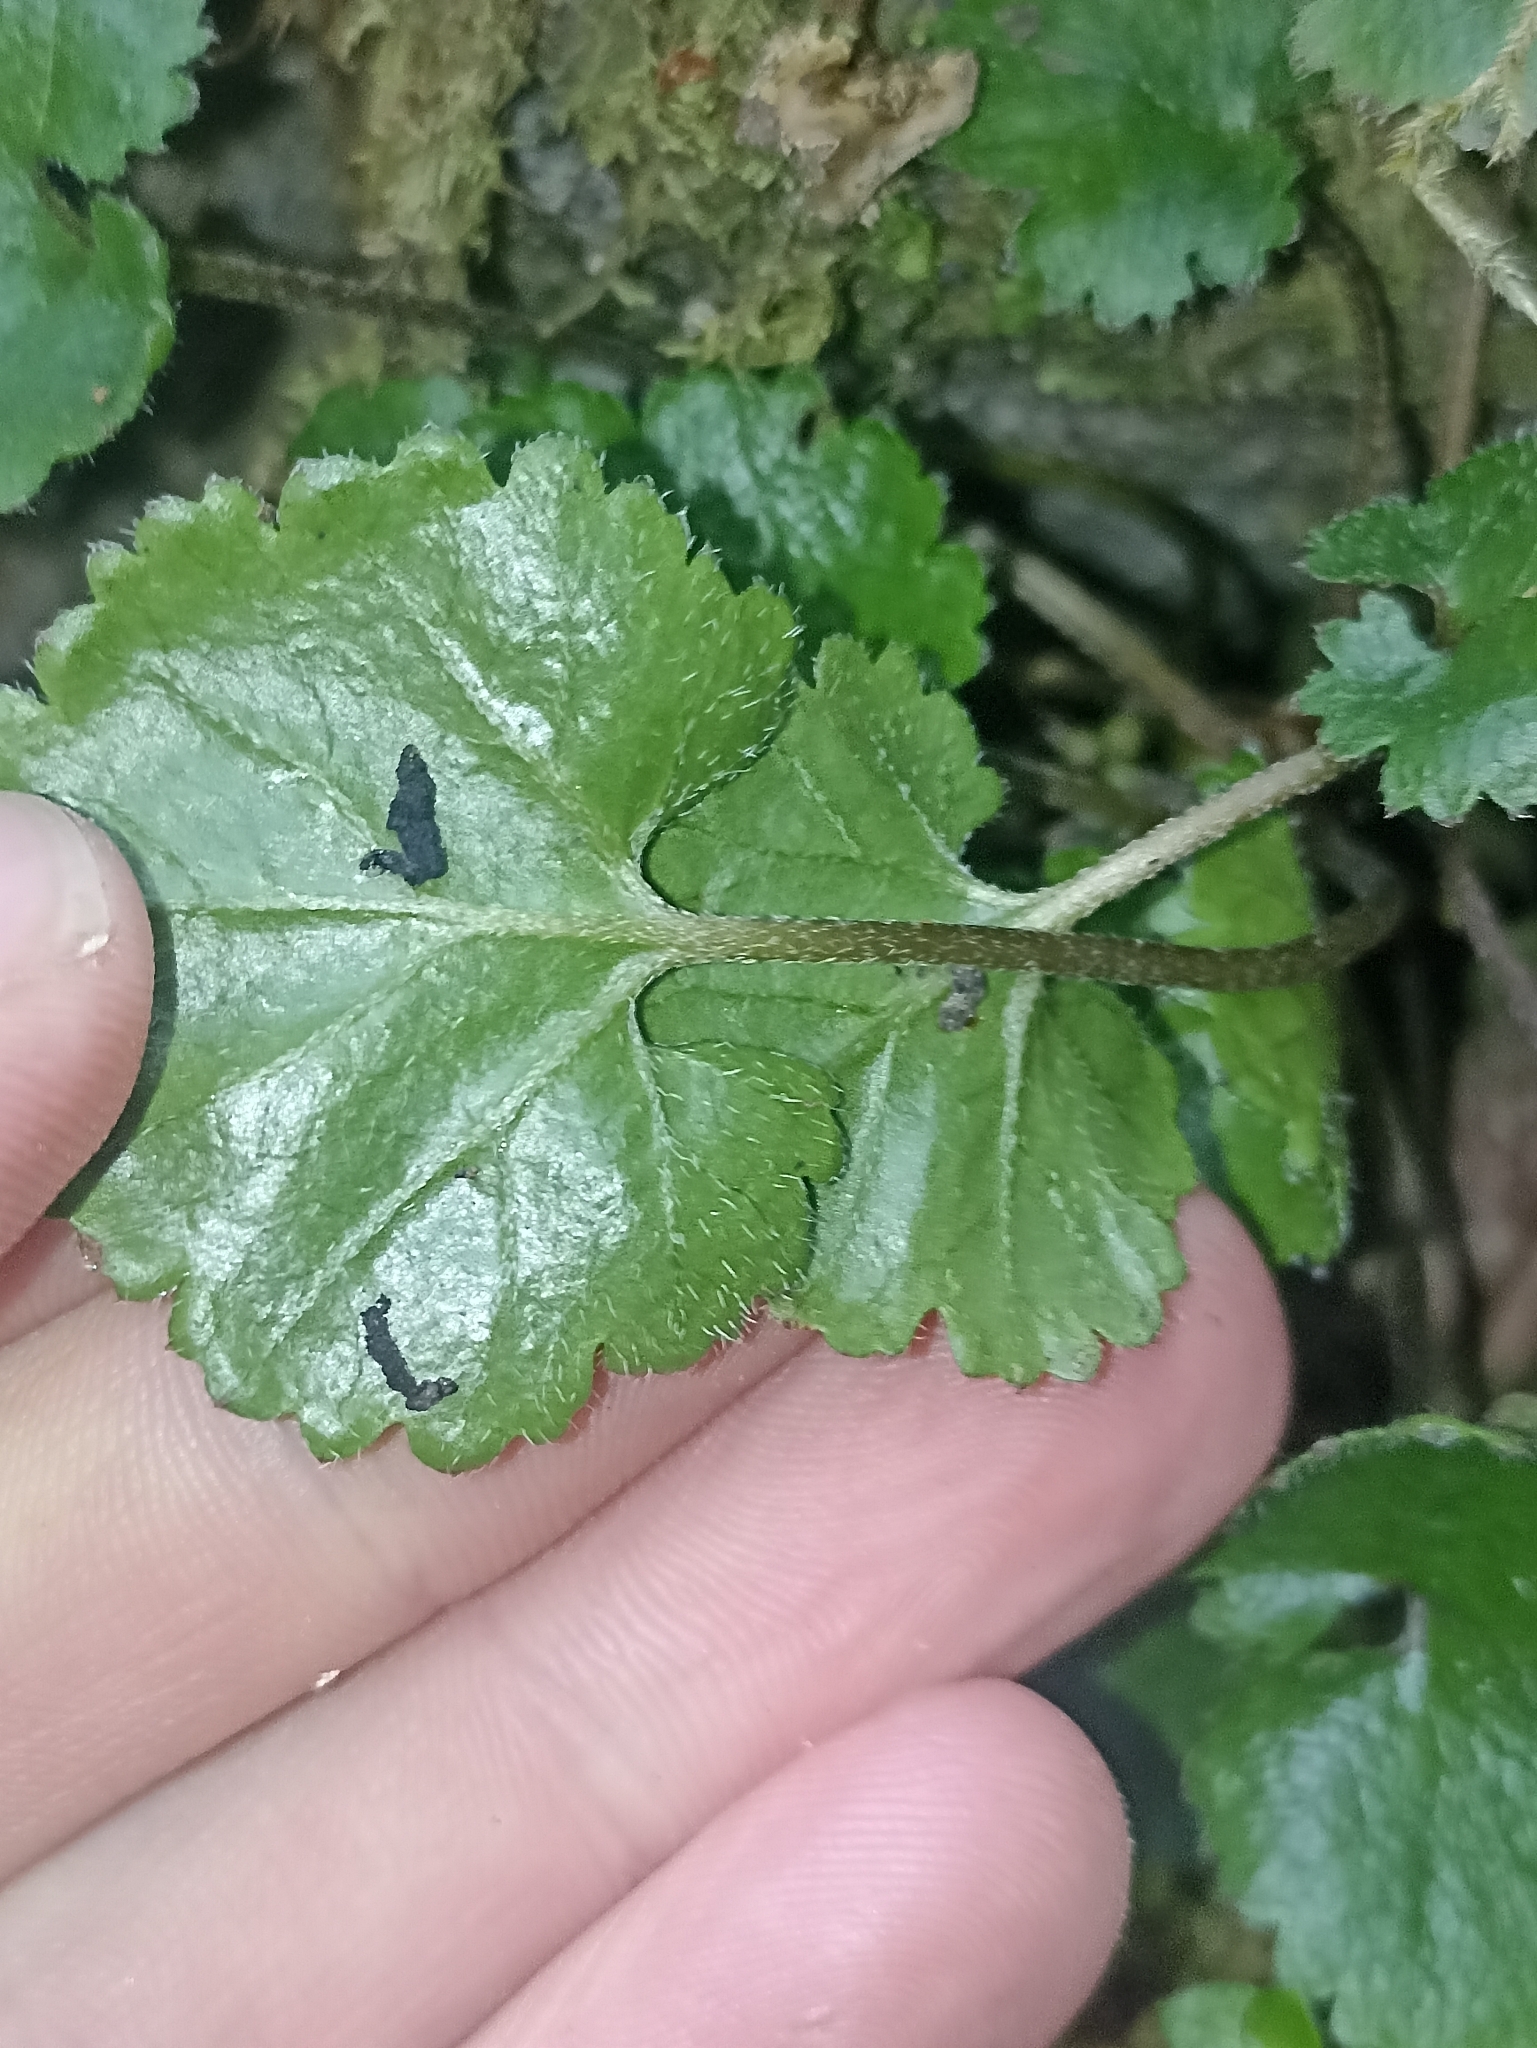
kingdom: Plantae
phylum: Tracheophyta
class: Magnoliopsida
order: Gunnerales
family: Gunneraceae
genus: Gunnera
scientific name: Gunnera monoica
